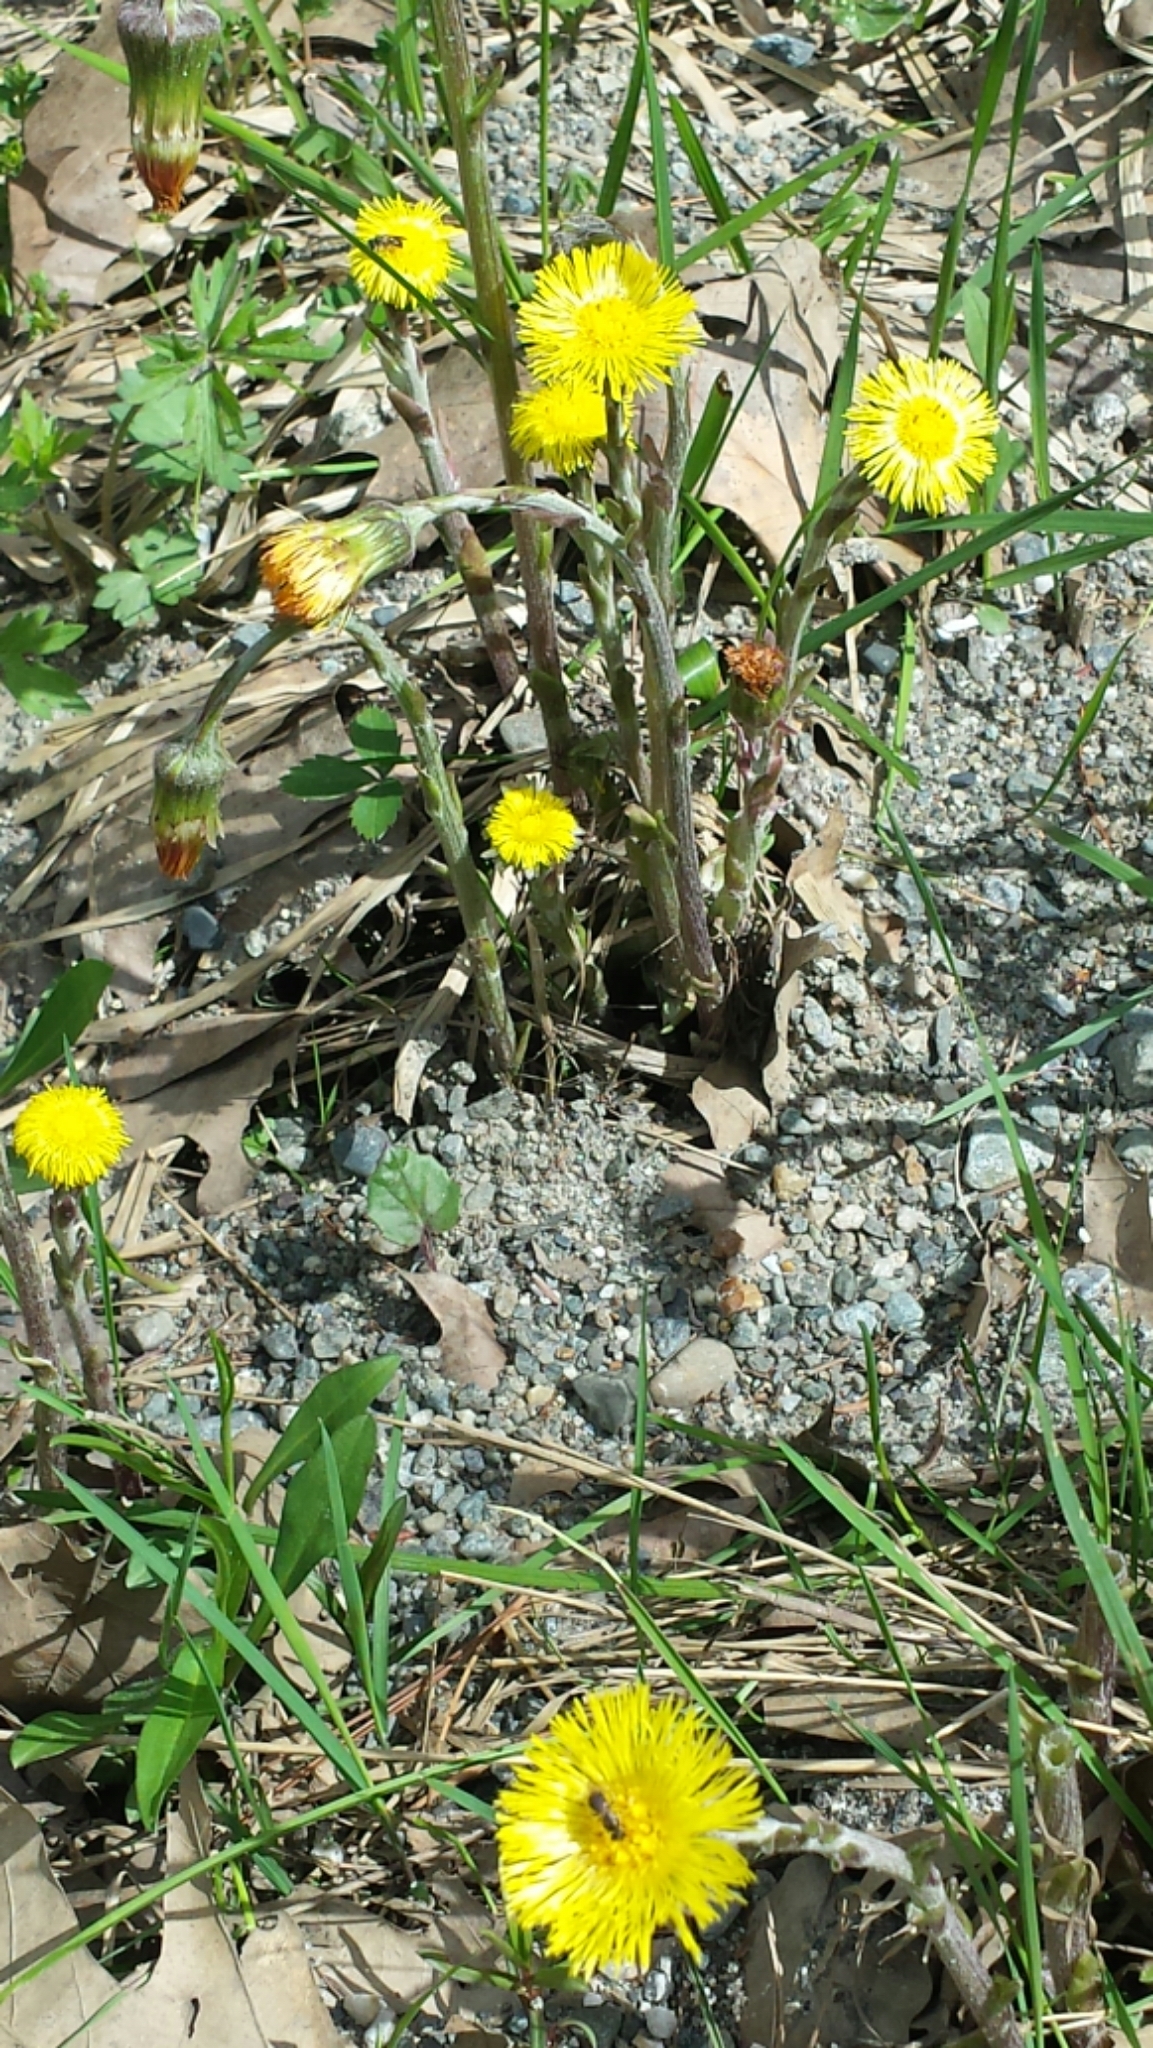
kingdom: Plantae
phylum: Tracheophyta
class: Magnoliopsida
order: Asterales
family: Asteraceae
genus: Tussilago
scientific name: Tussilago farfara
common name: Coltsfoot
